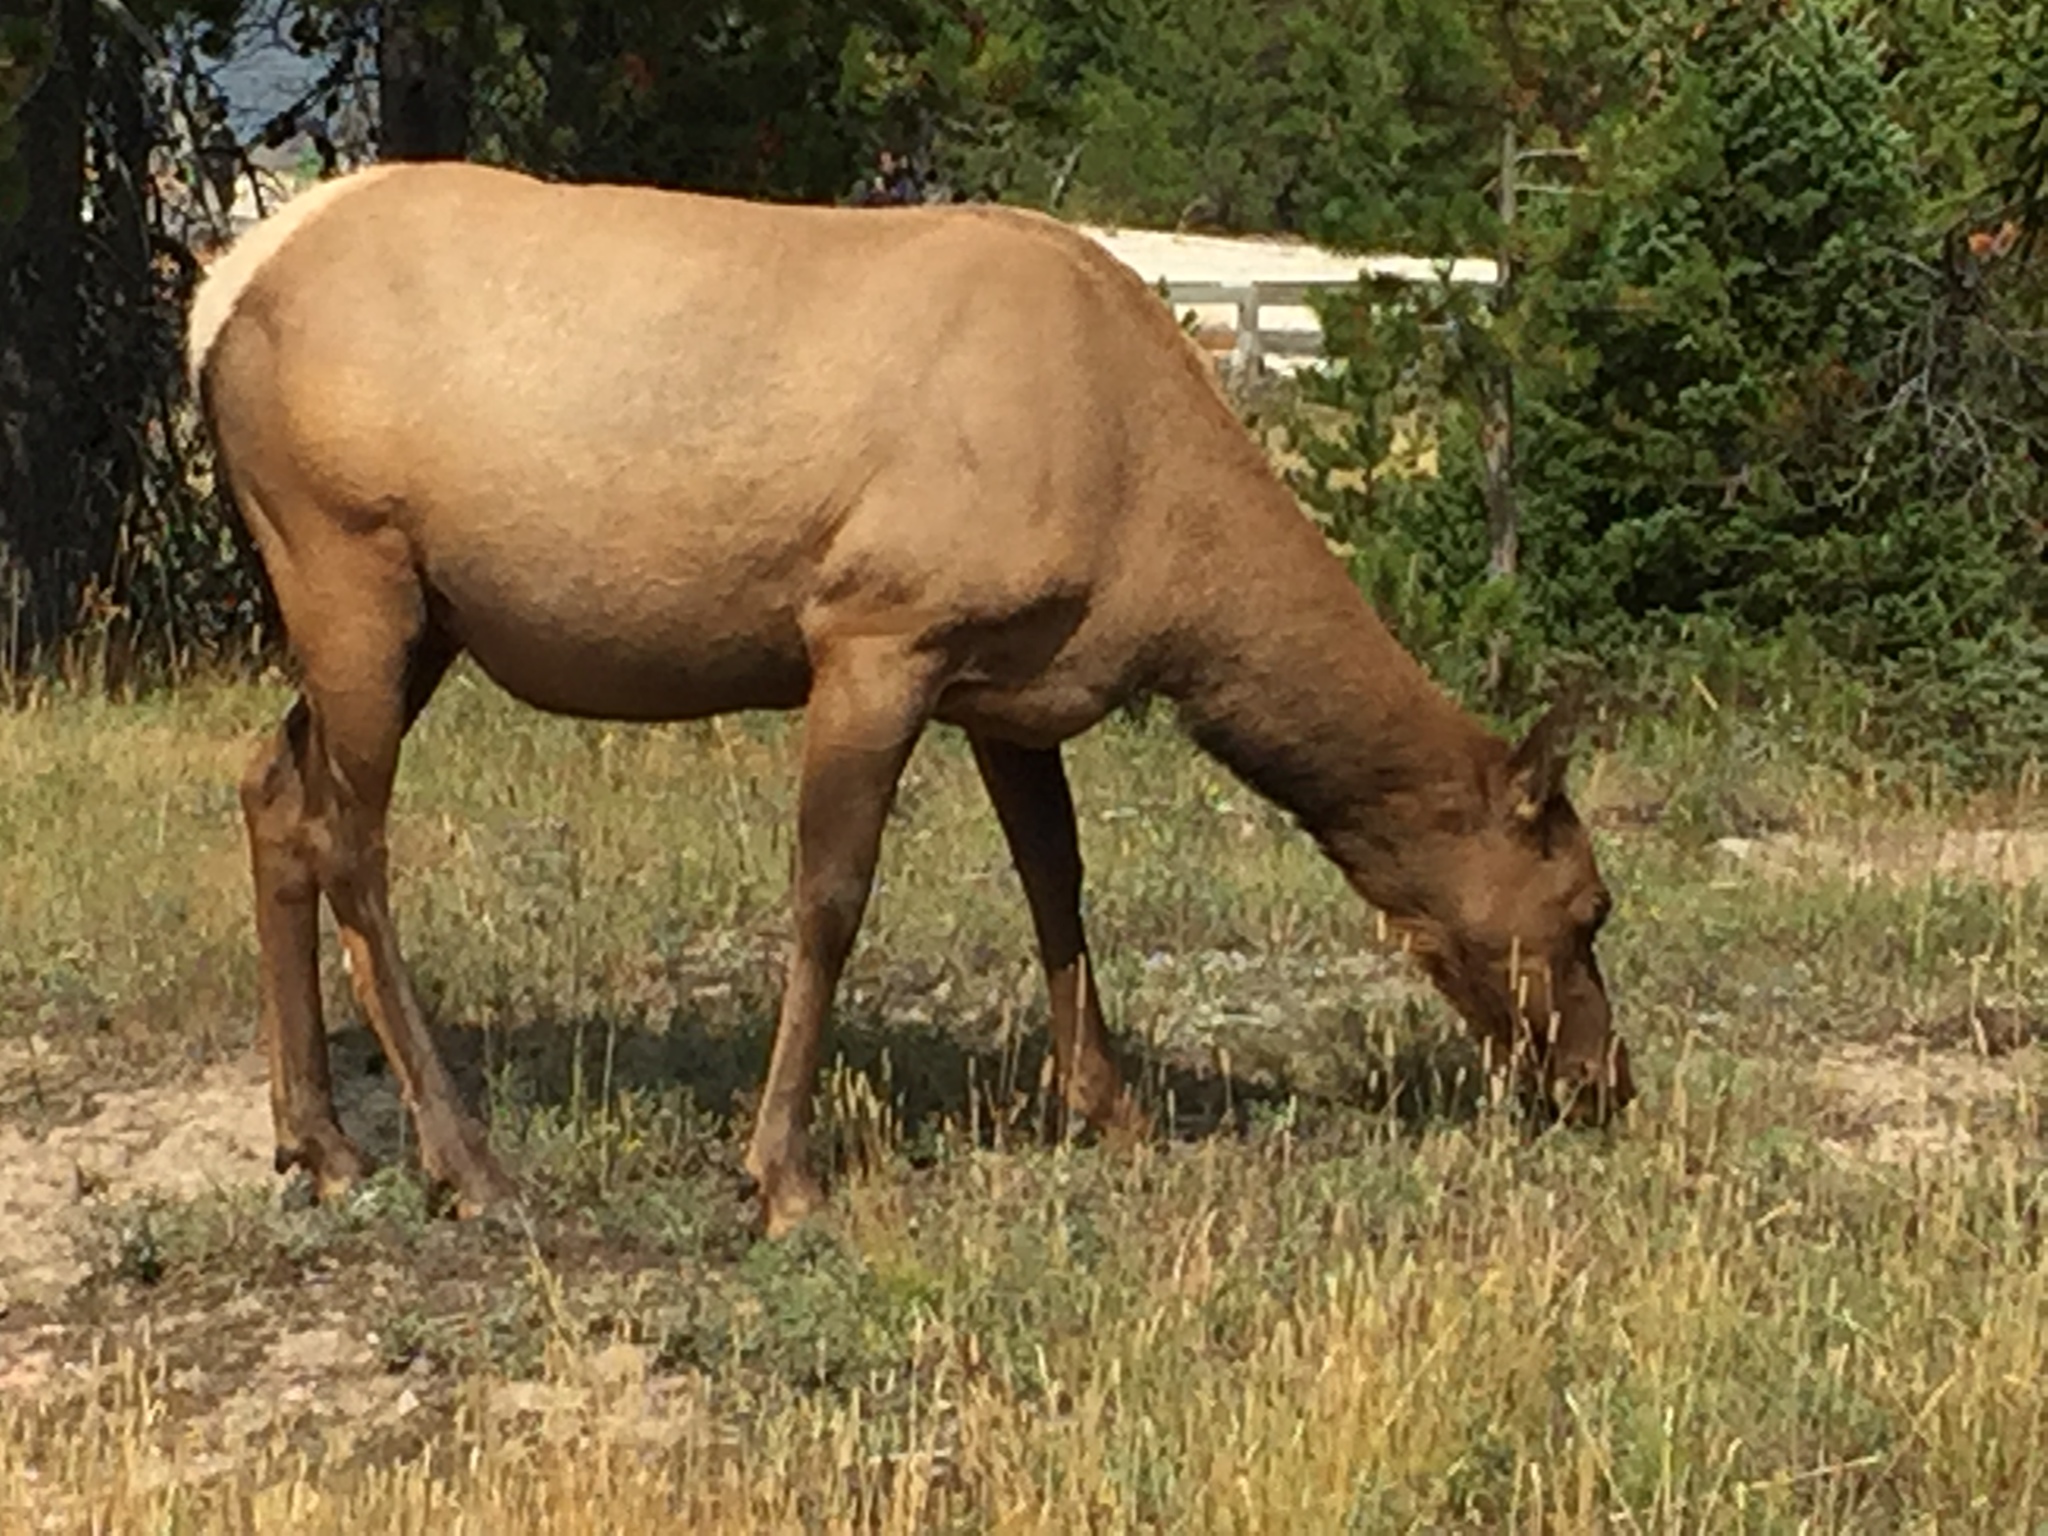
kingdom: Animalia
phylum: Chordata
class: Mammalia
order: Artiodactyla
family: Cervidae
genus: Cervus
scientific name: Cervus elaphus
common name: Red deer
